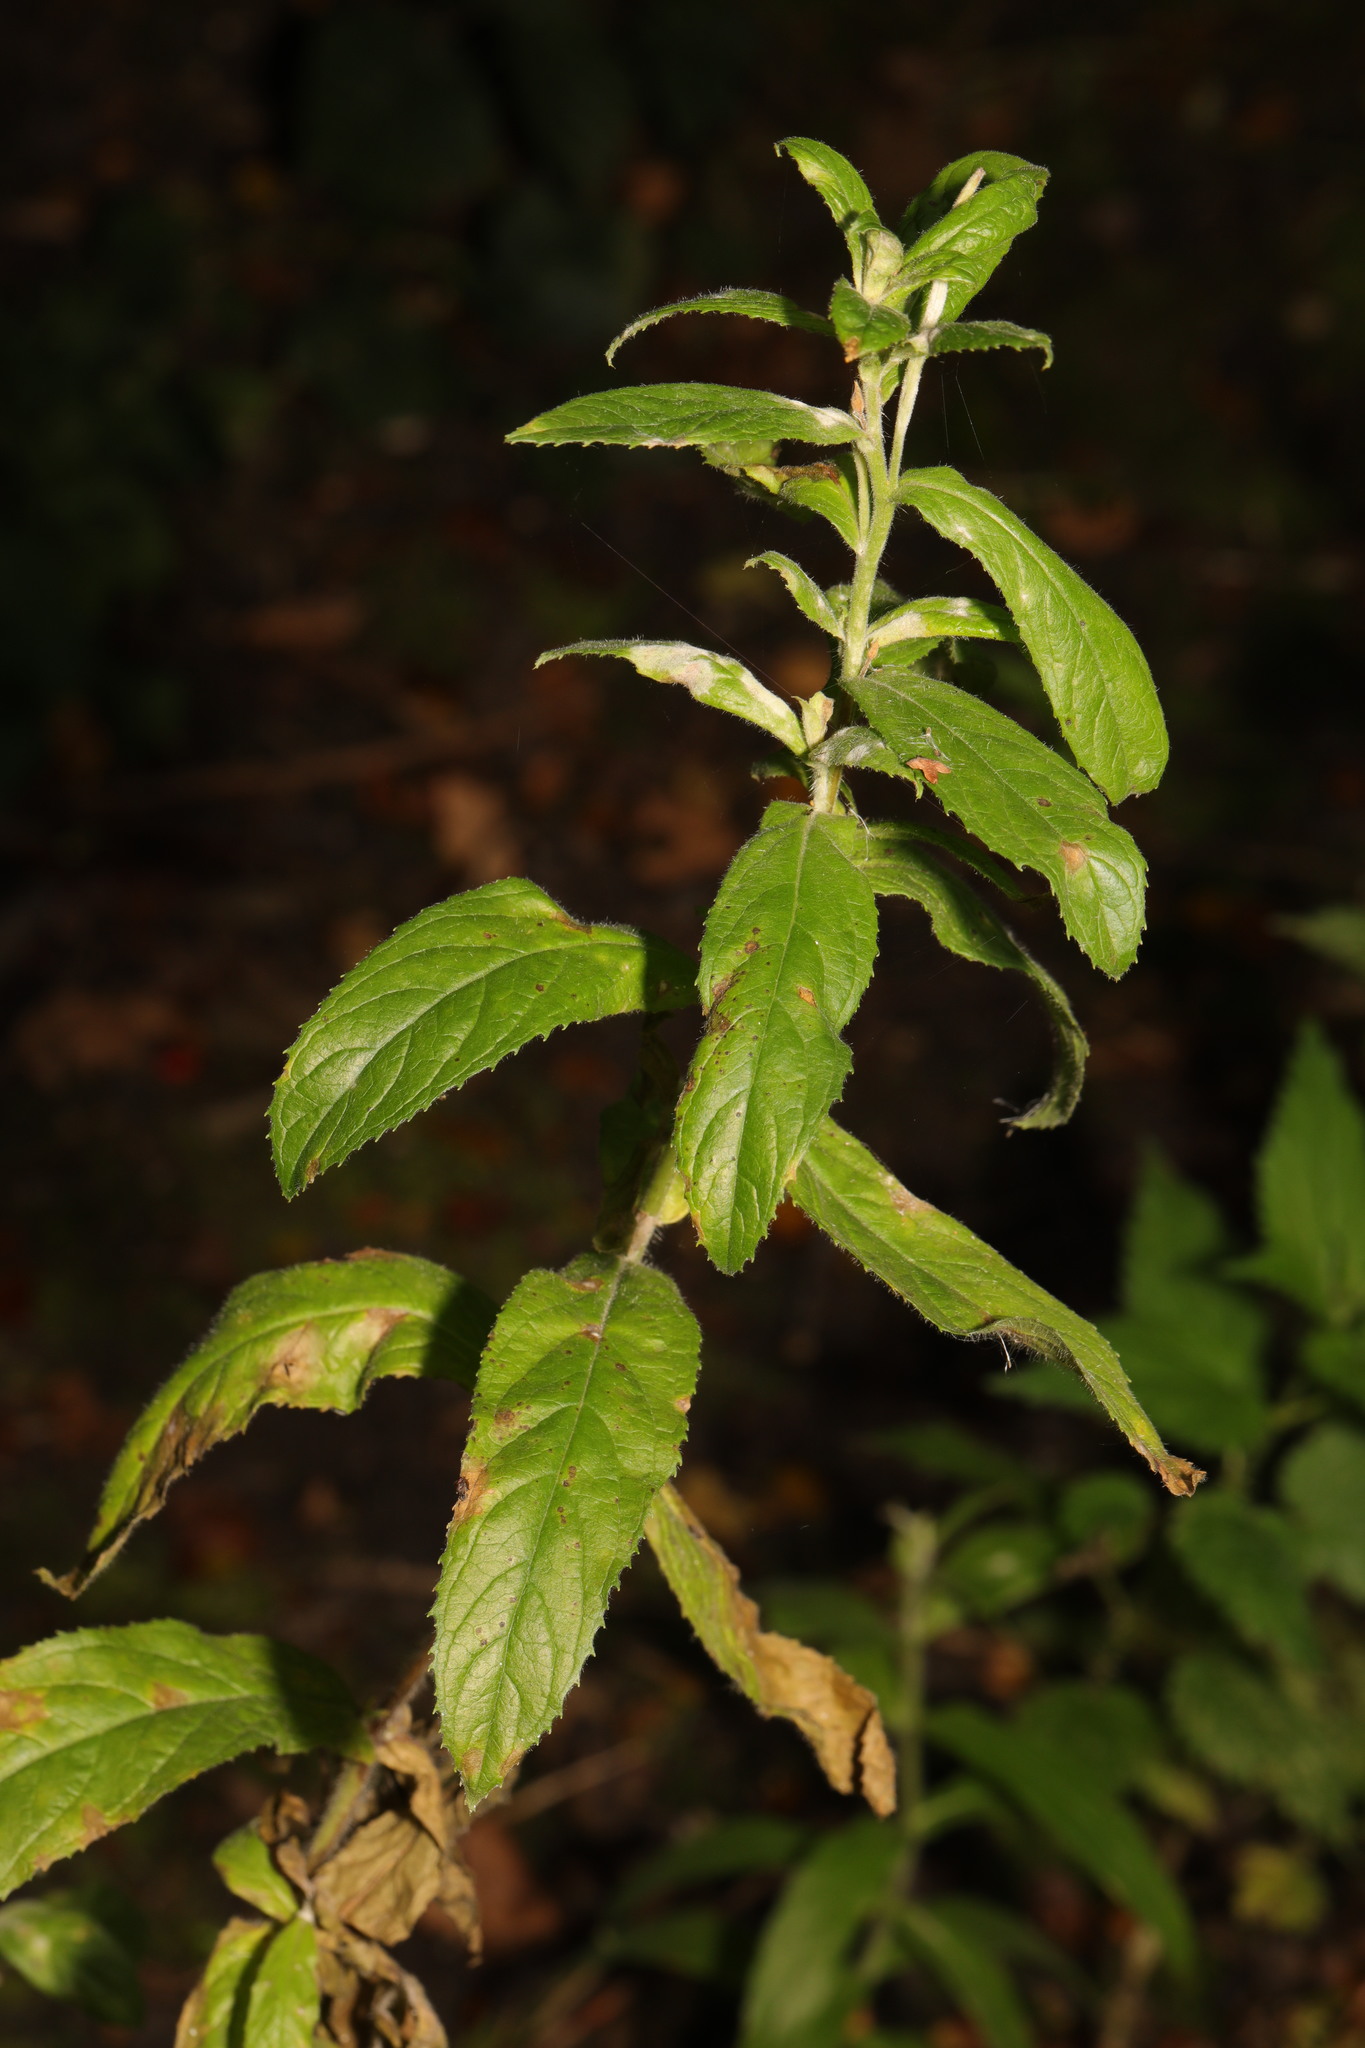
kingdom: Plantae
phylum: Tracheophyta
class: Magnoliopsida
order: Myrtales
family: Onagraceae
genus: Epilobium
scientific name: Epilobium hirsutum
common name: Great willowherb
